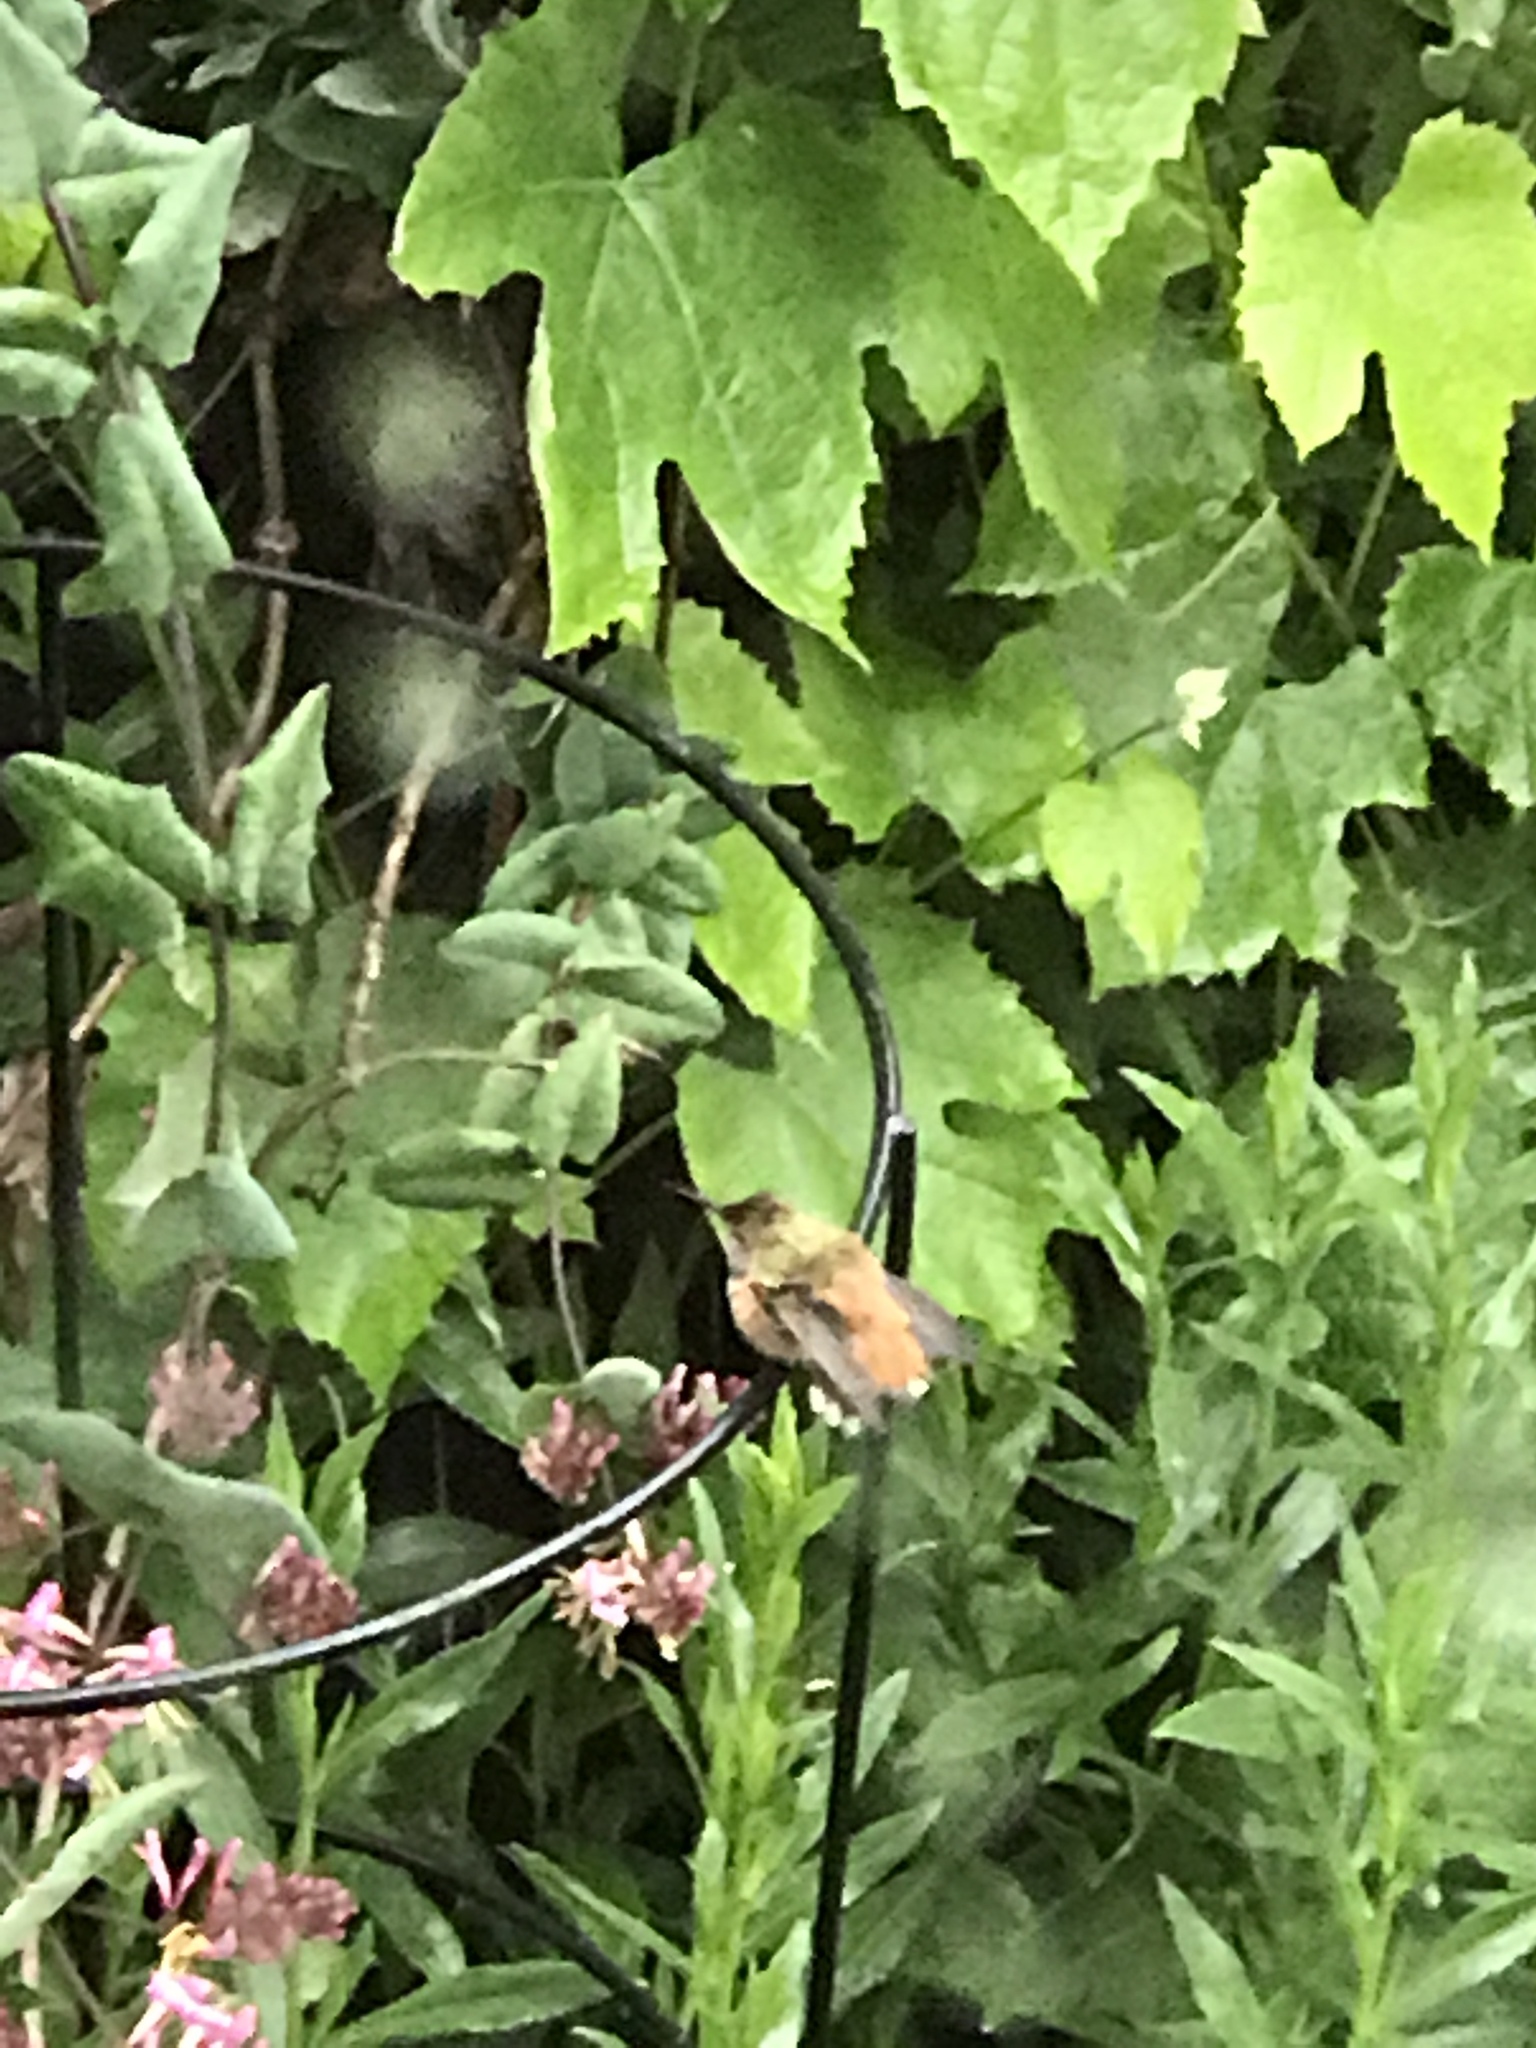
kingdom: Animalia
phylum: Chordata
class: Aves
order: Apodiformes
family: Trochilidae
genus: Selasphorus
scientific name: Selasphorus sasin
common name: Allen's hummingbird
